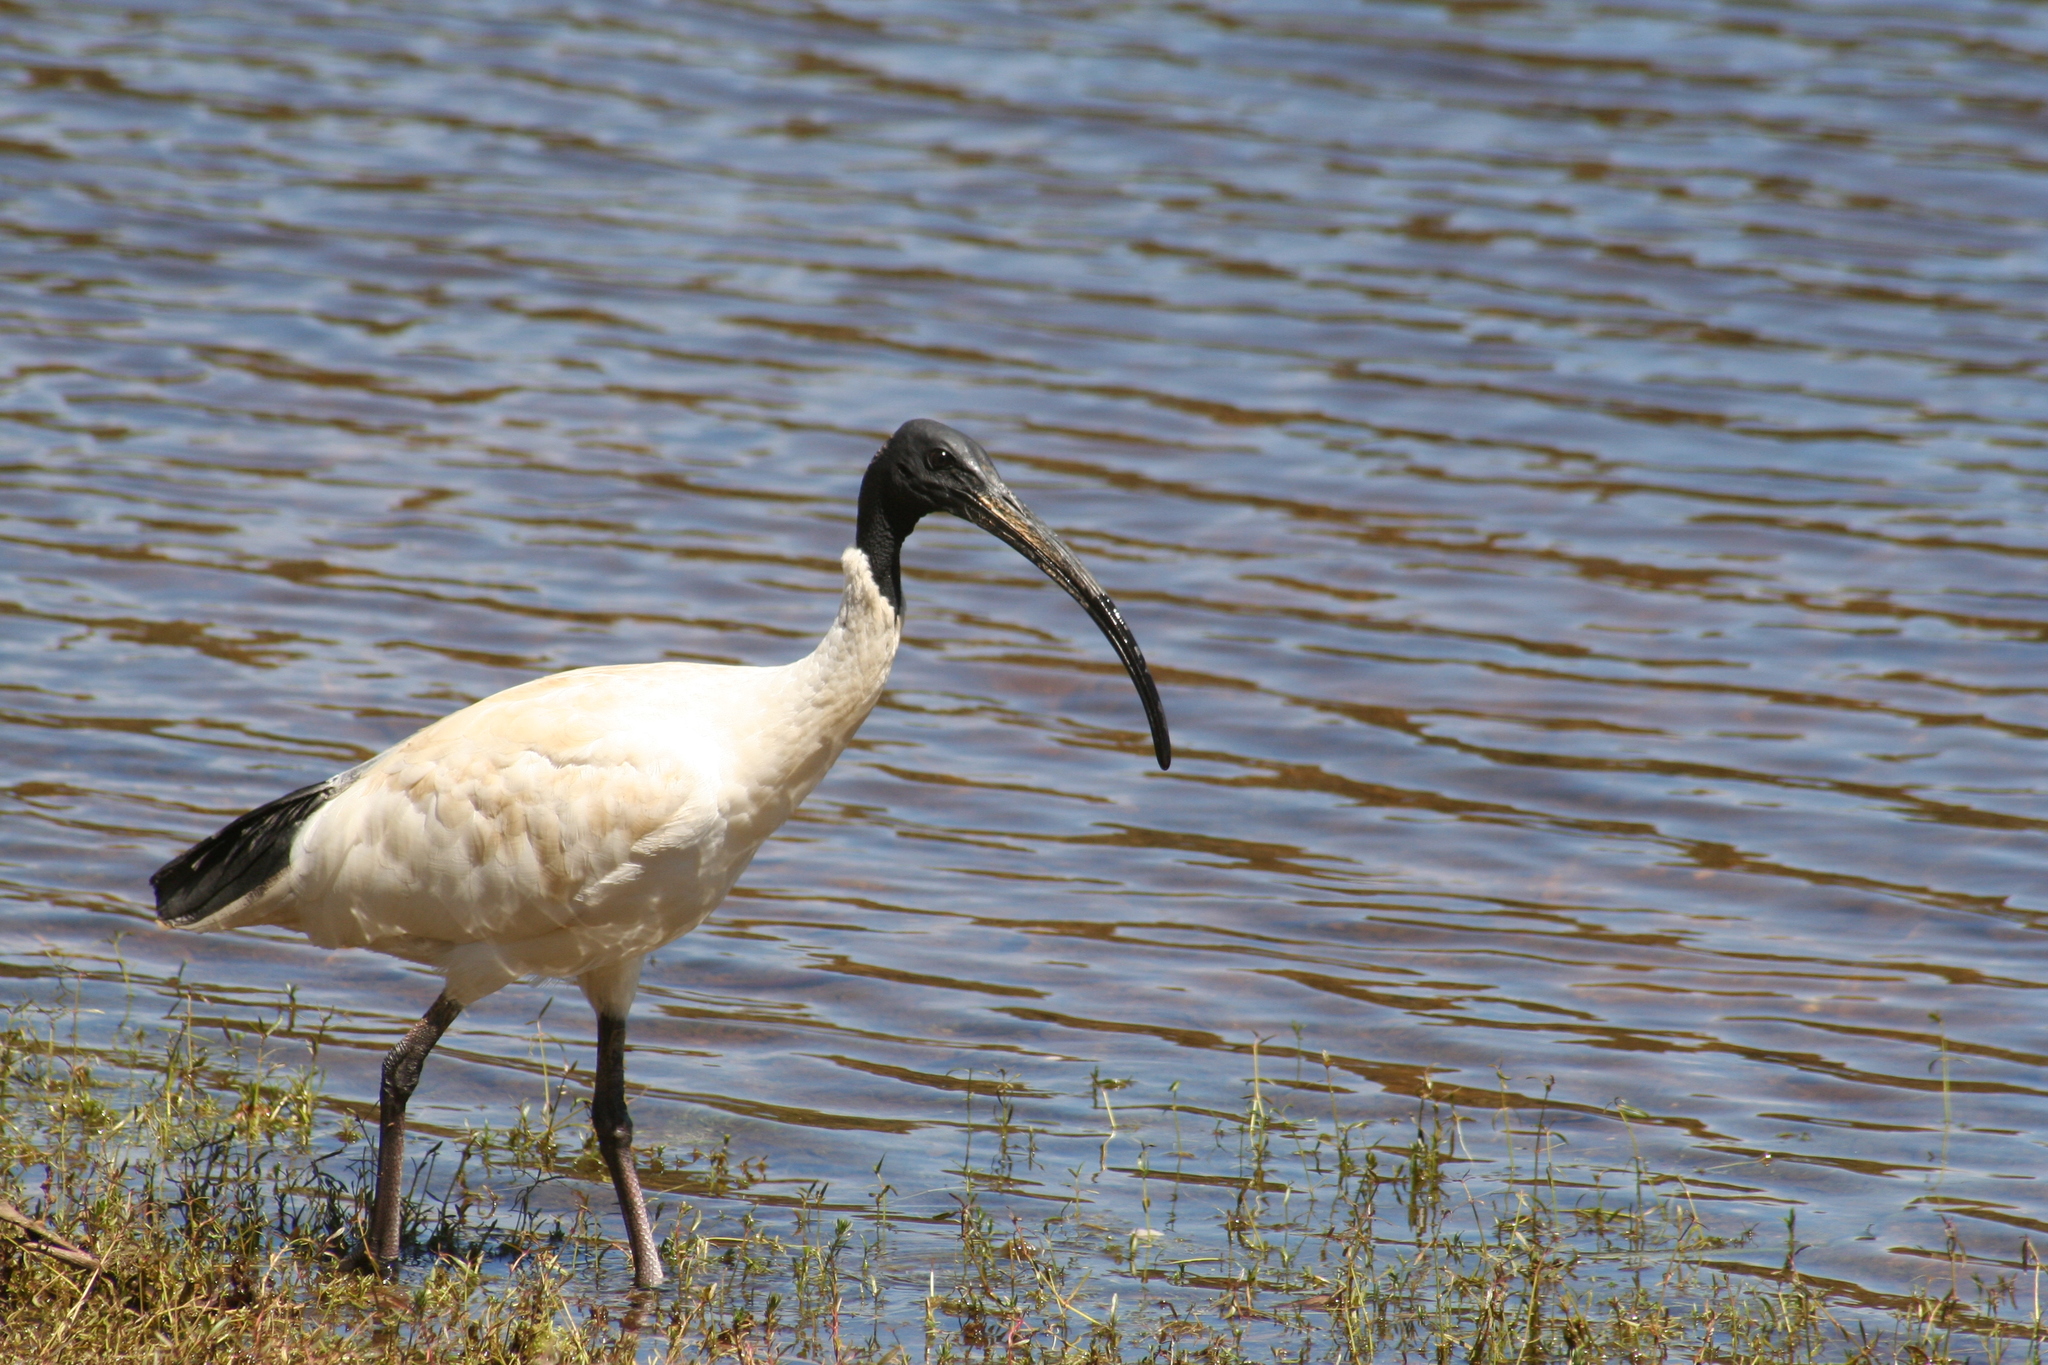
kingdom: Animalia
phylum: Chordata
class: Aves
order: Pelecaniformes
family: Threskiornithidae
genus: Threskiornis
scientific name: Threskiornis molucca
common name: Australian white ibis
